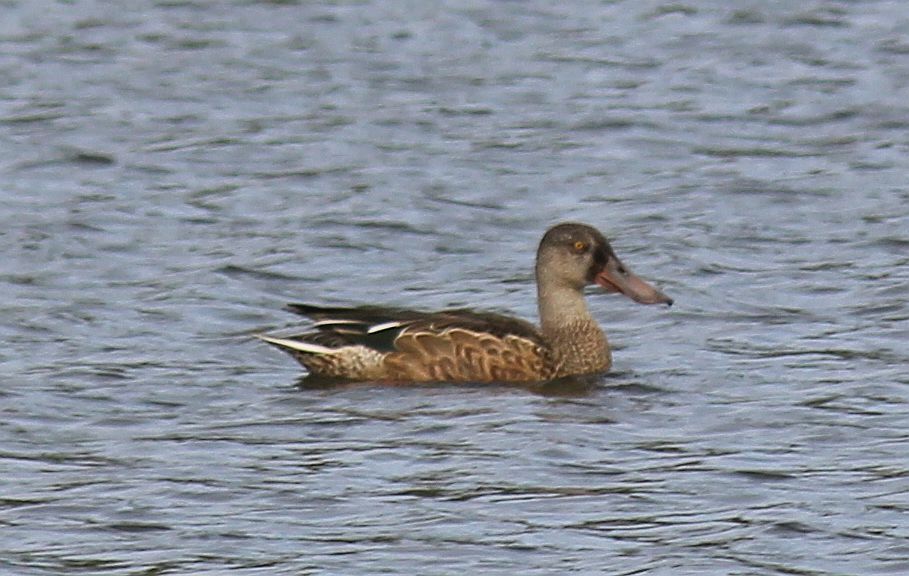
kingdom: Animalia
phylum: Chordata
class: Aves
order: Anseriformes
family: Anatidae
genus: Spatula
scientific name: Spatula clypeata
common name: Northern shoveler
